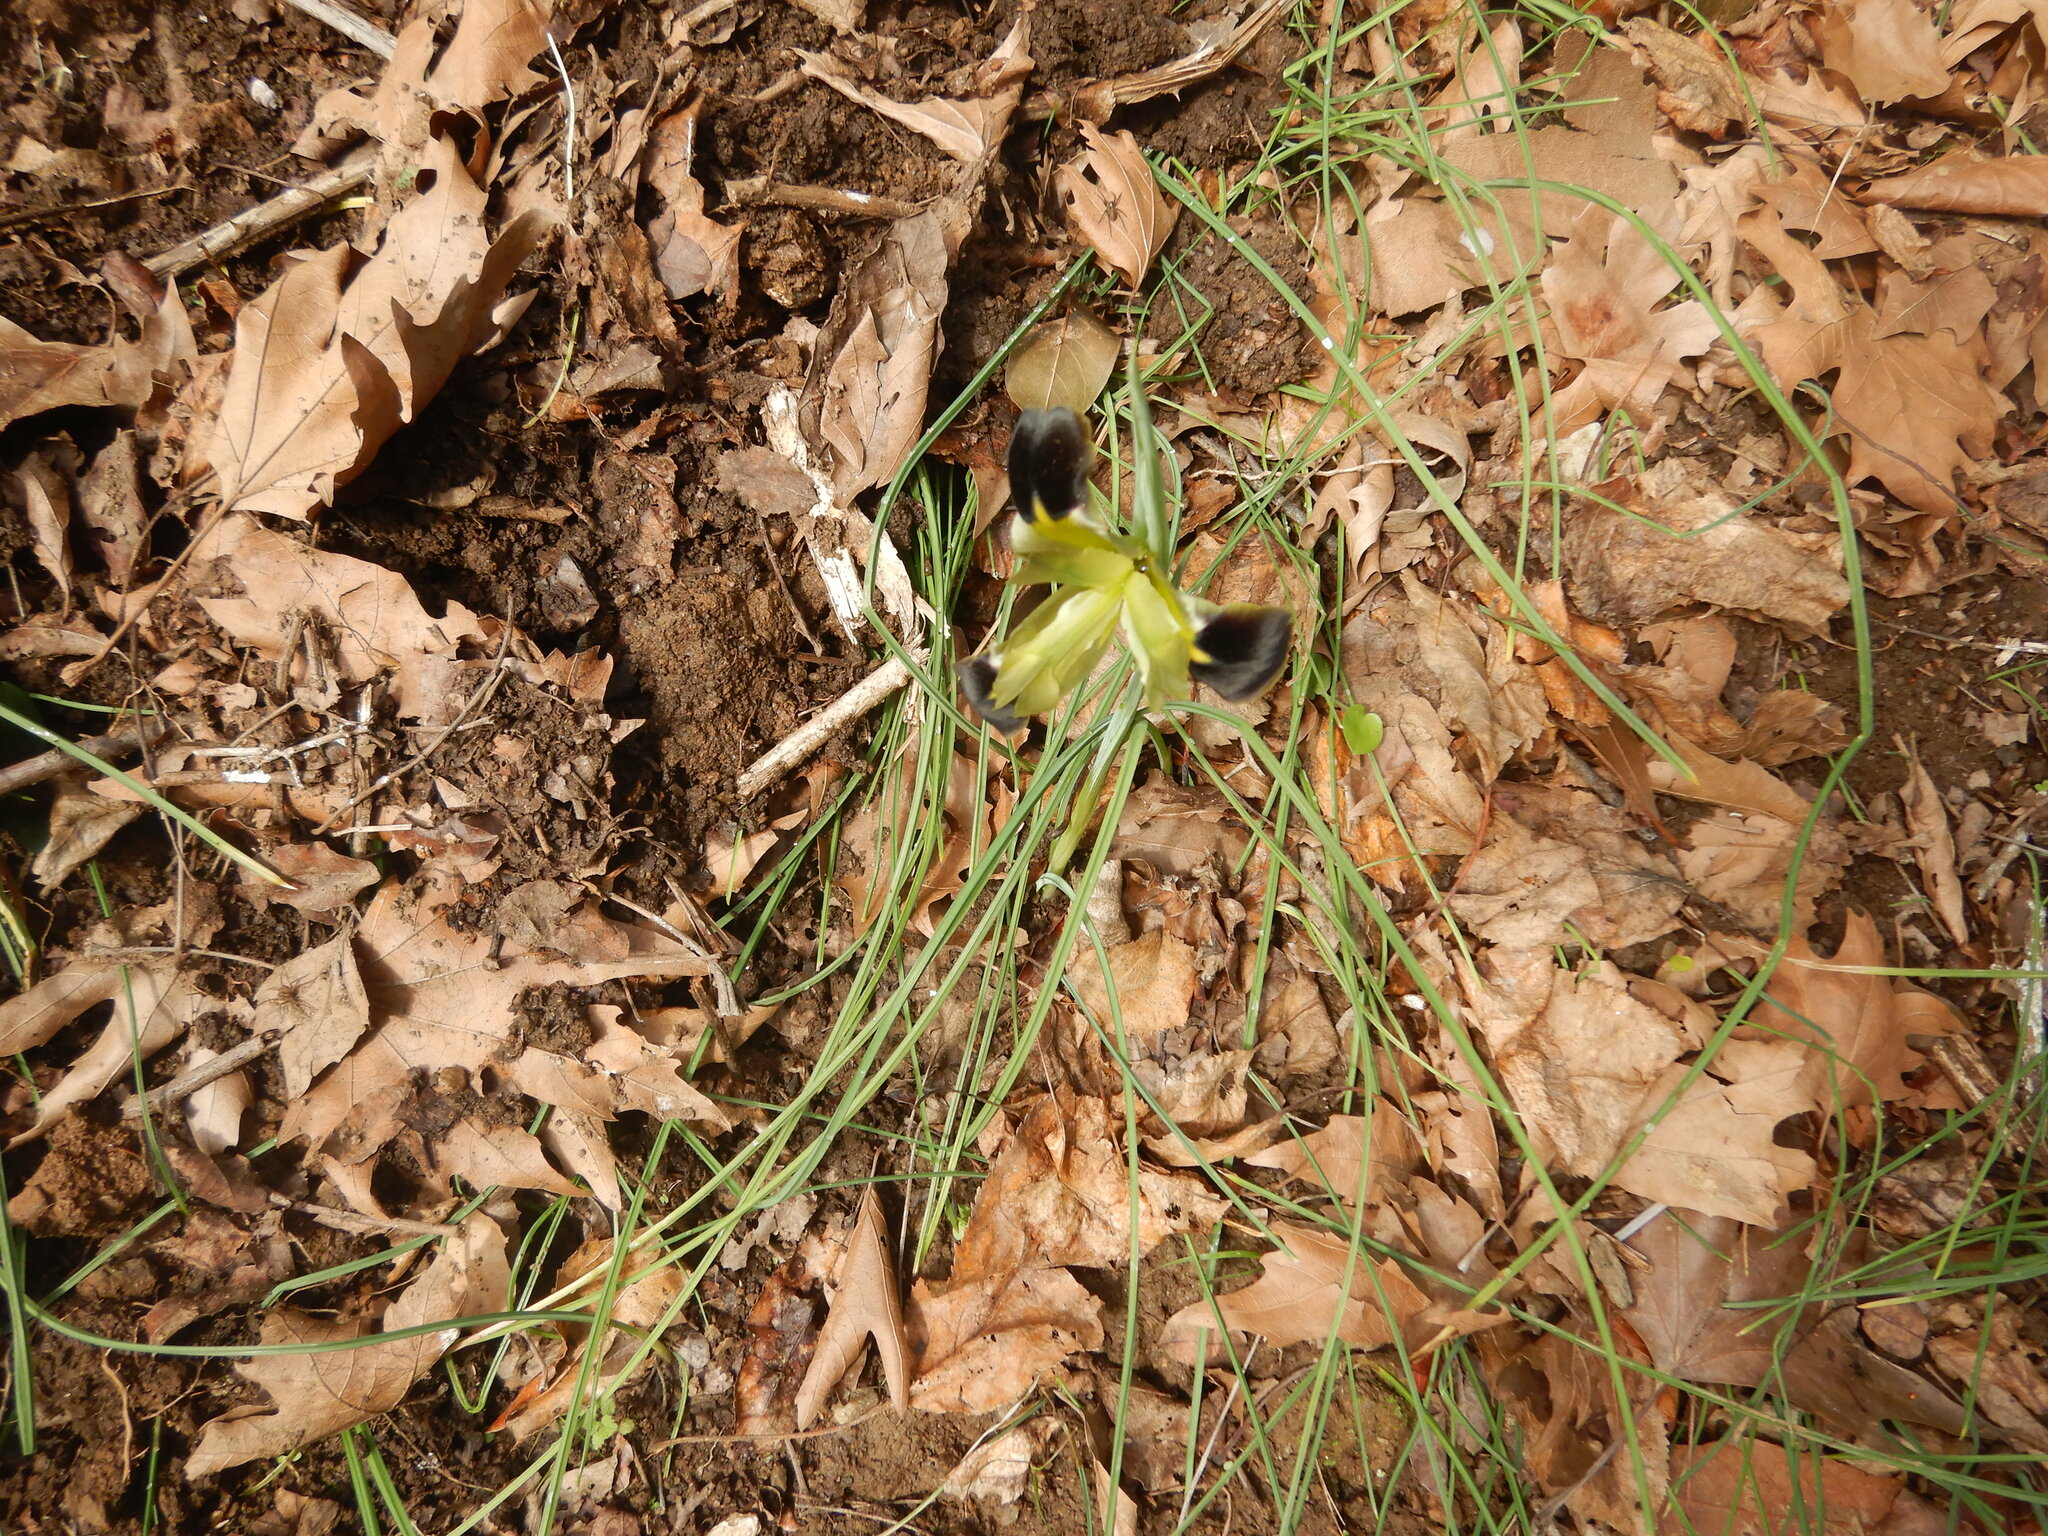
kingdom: Plantae
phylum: Tracheophyta
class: Liliopsida
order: Asparagales
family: Iridaceae
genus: Iris
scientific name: Iris tuberosa
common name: Snake's-head iris
